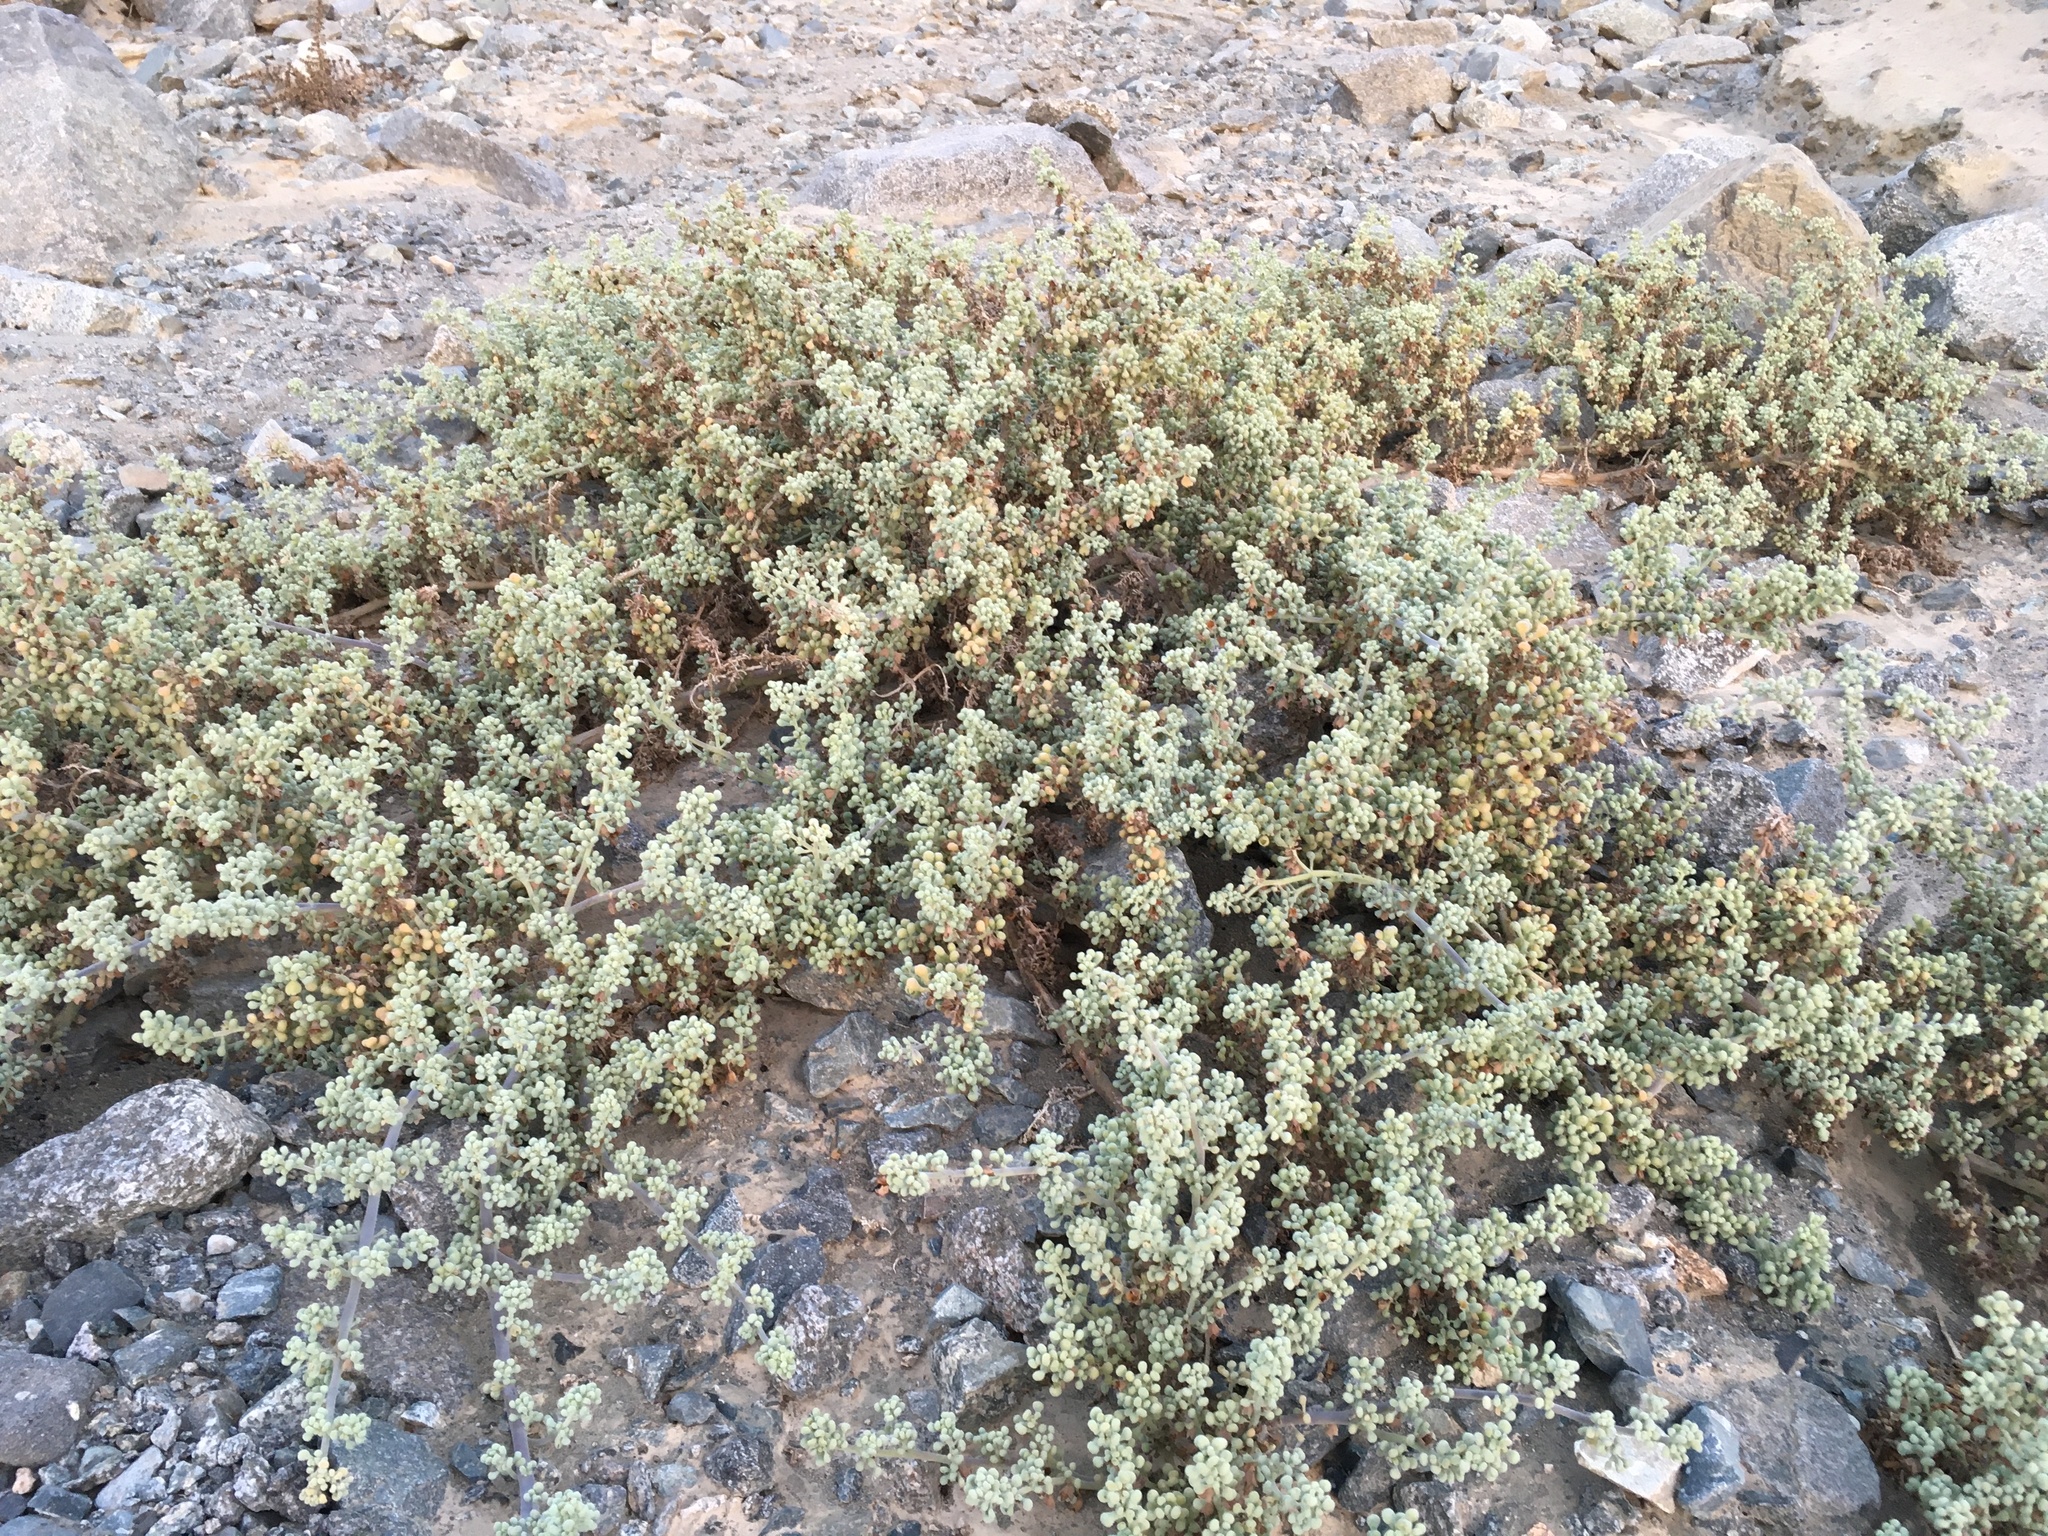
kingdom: Plantae
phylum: Tracheophyta
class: Magnoliopsida
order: Solanales
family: Solanaceae
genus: Nolana
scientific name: Nolana peruviana
